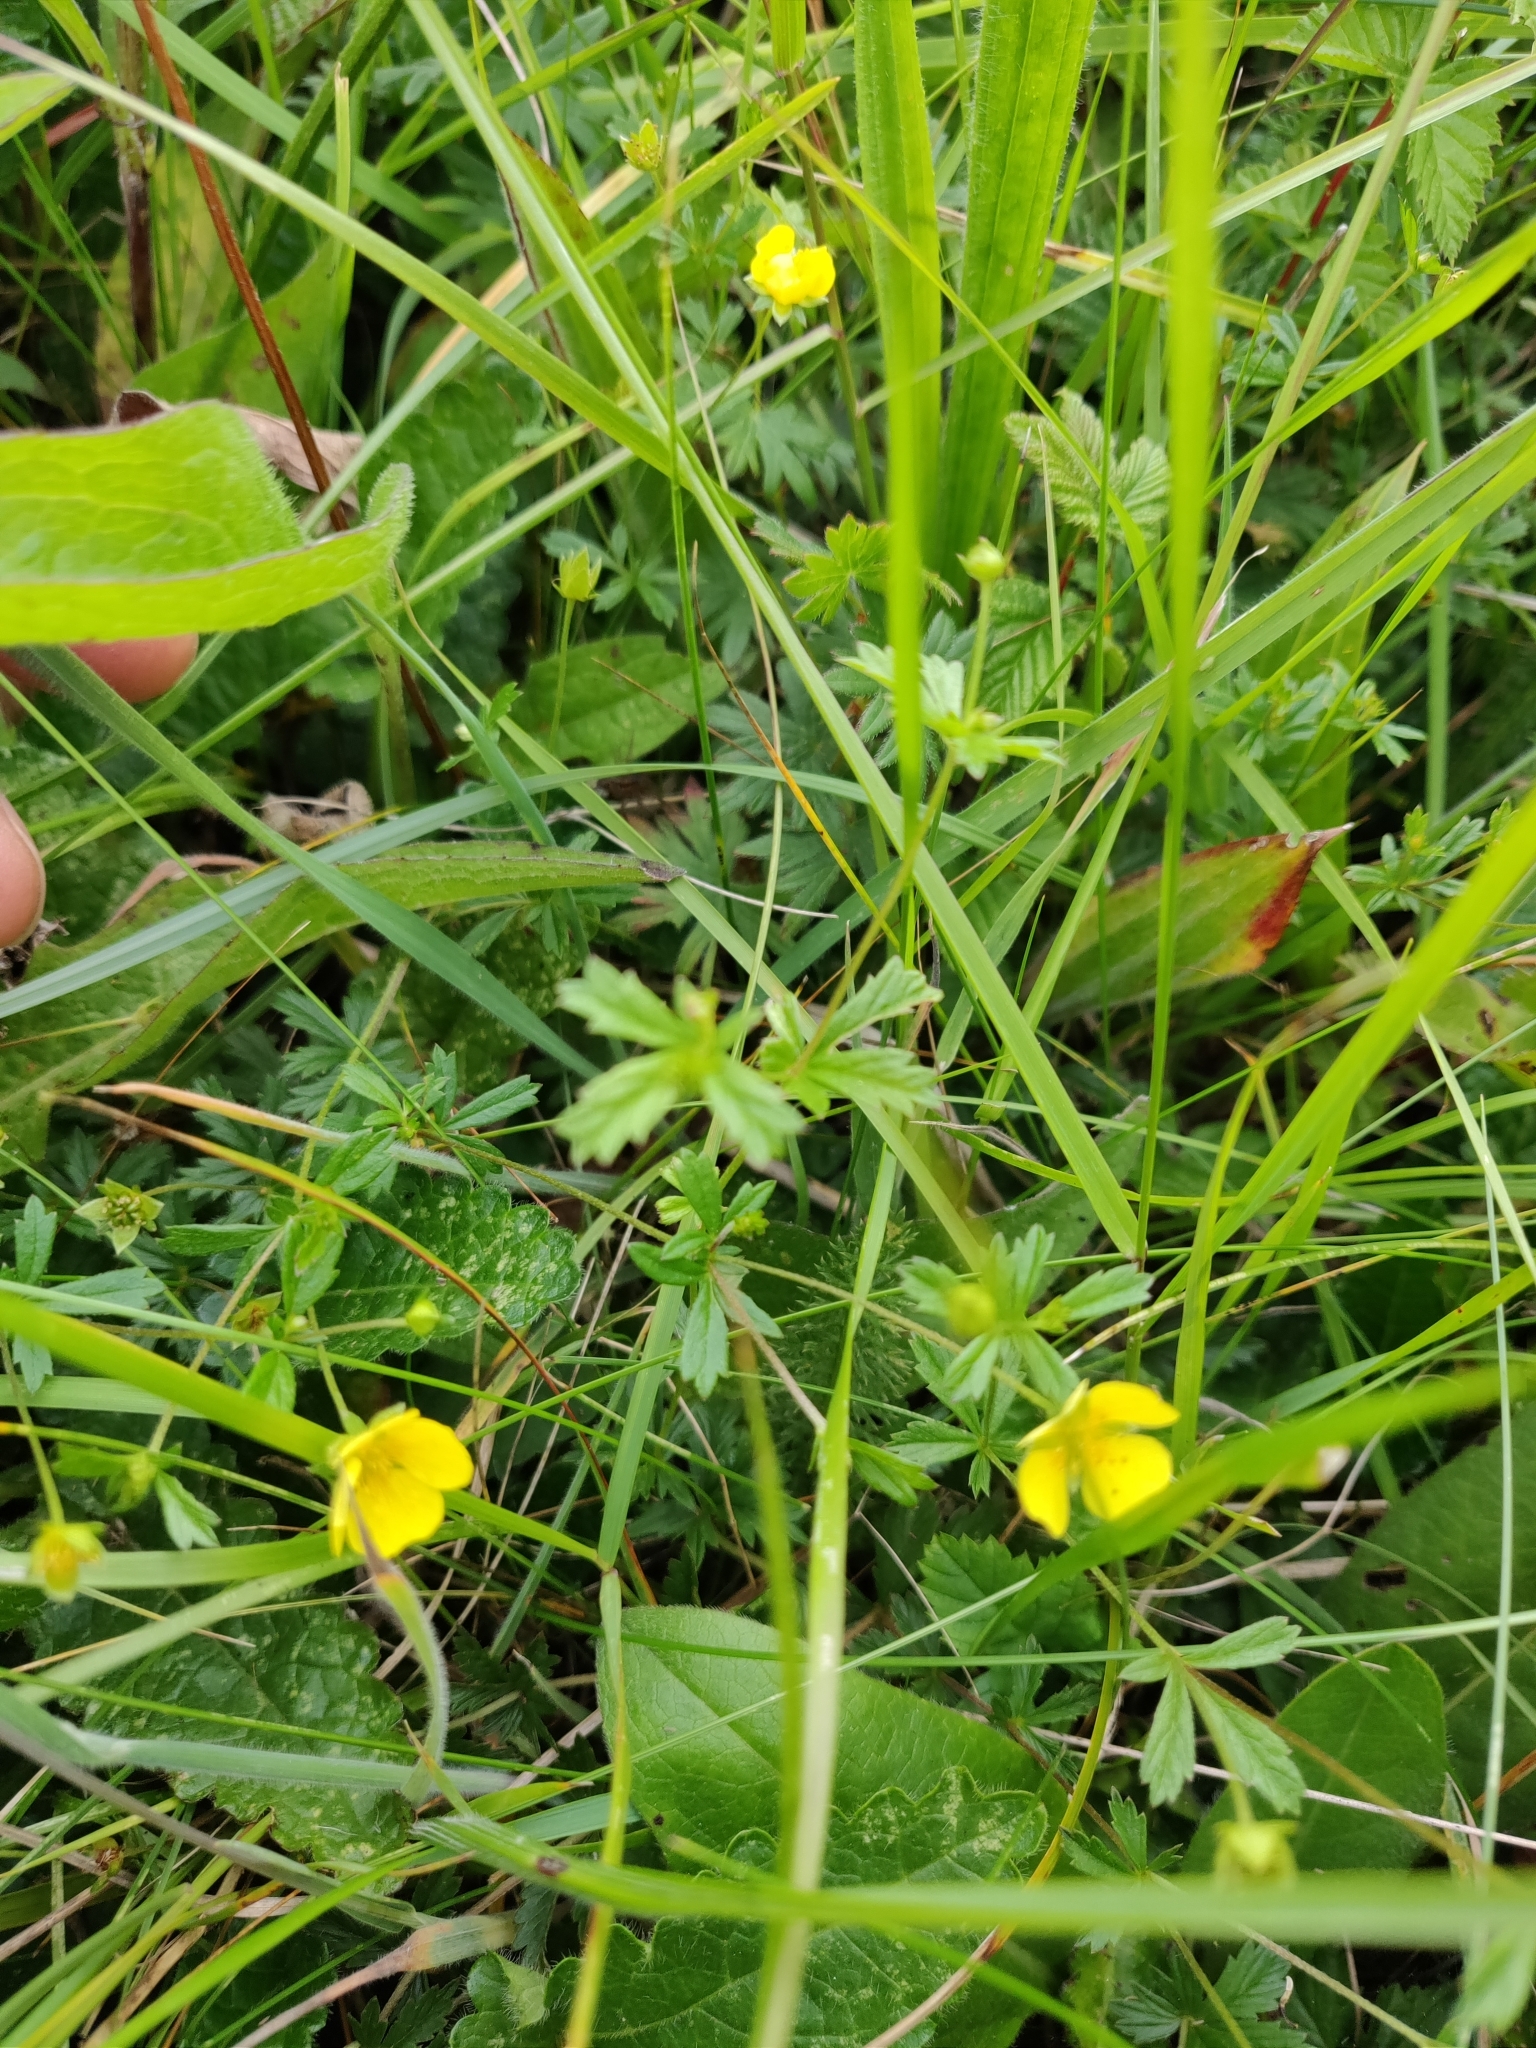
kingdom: Plantae
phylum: Tracheophyta
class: Magnoliopsida
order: Rosales
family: Rosaceae
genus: Potentilla
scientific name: Potentilla erecta
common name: Tormentil
